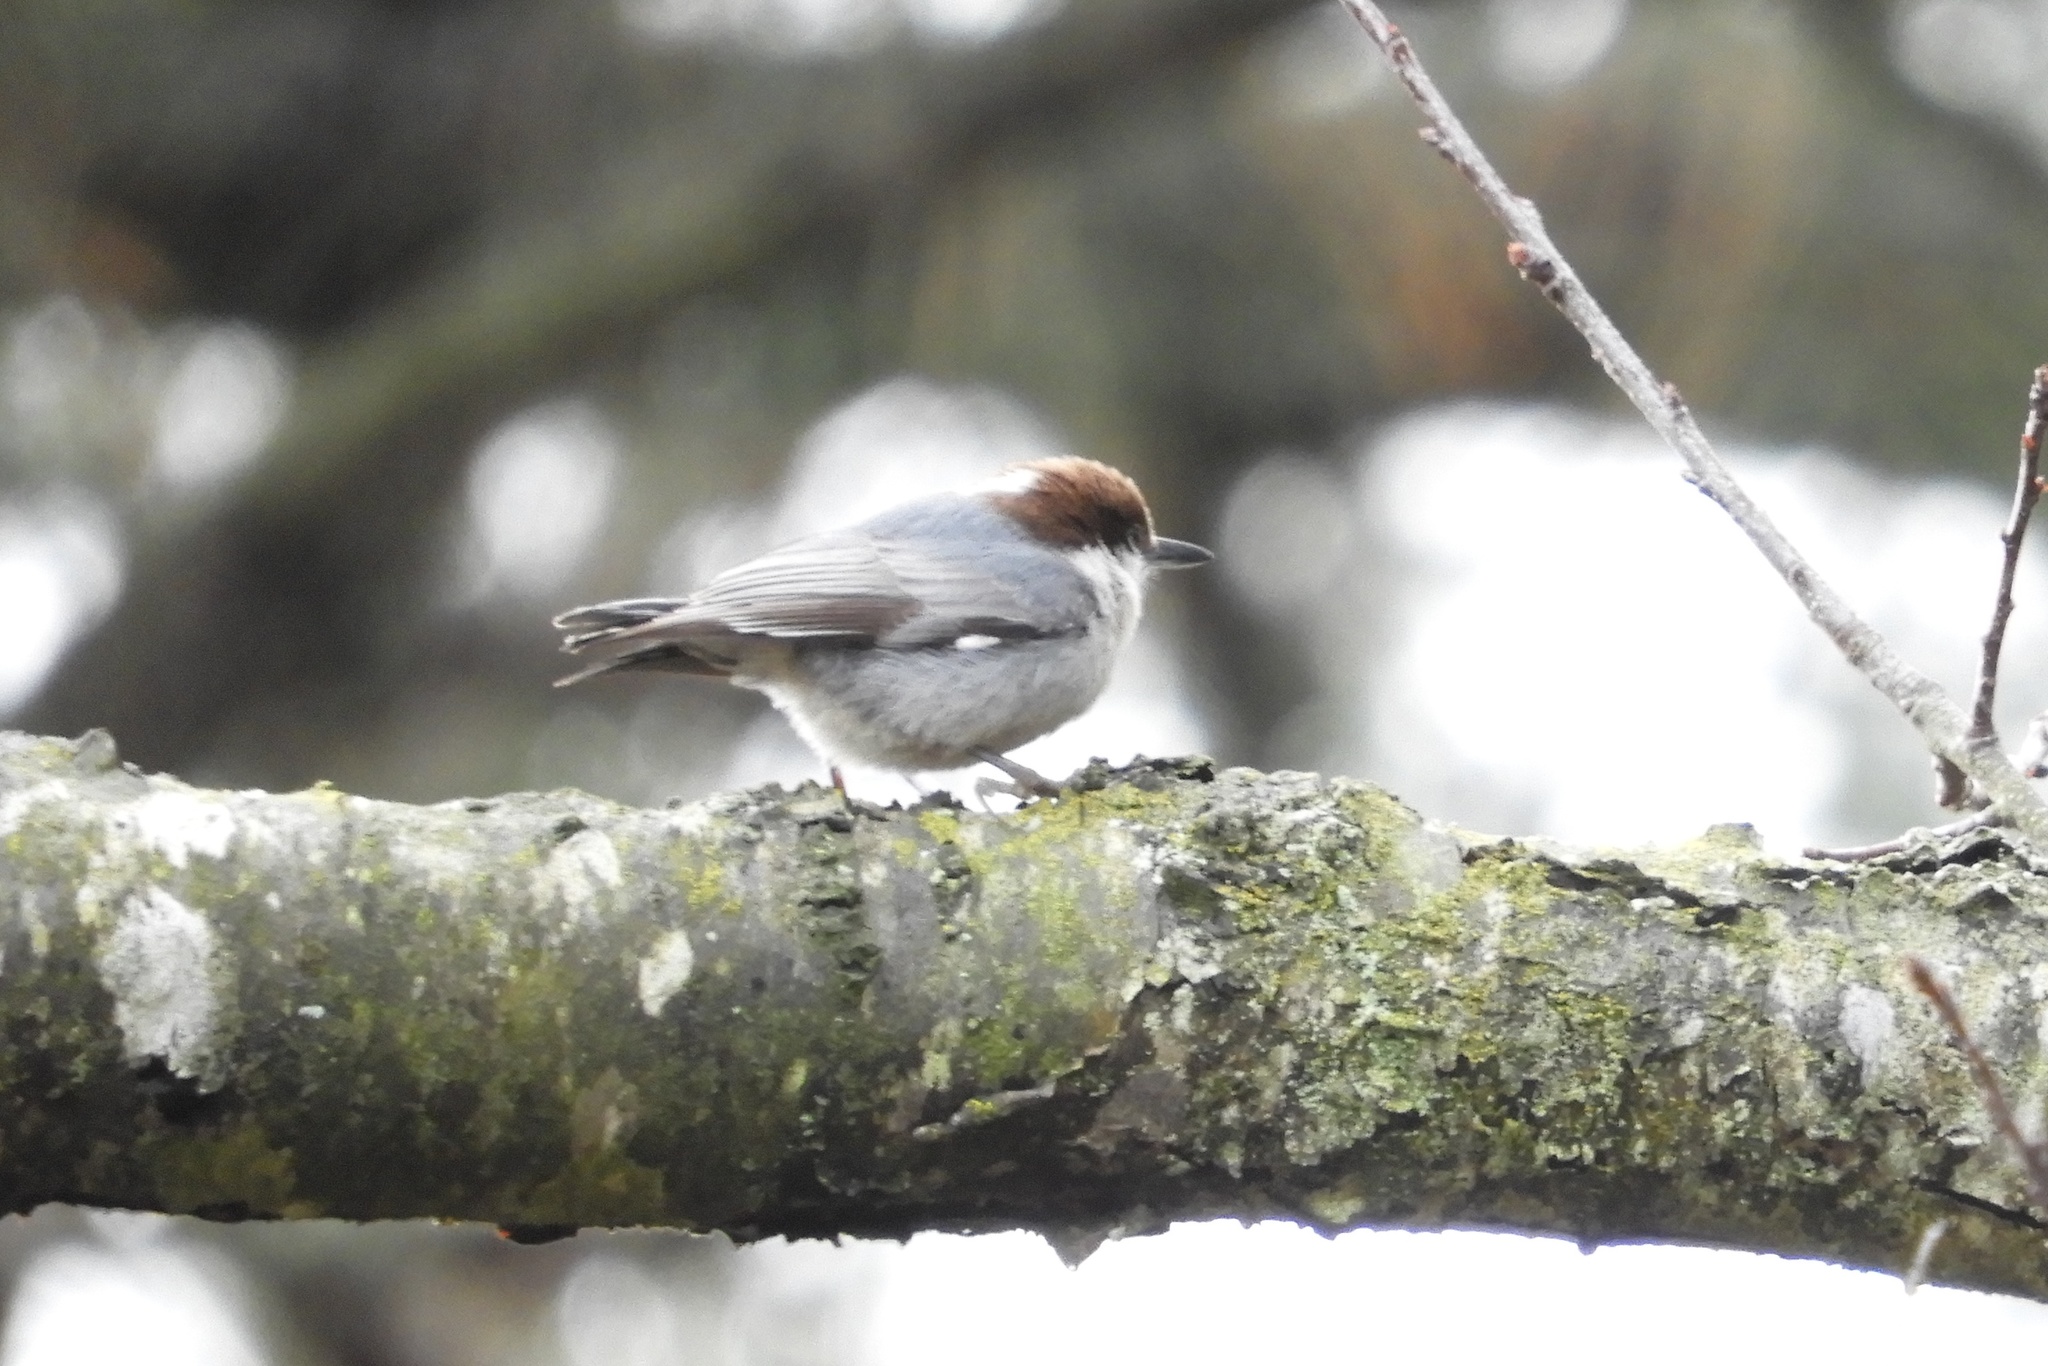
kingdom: Animalia
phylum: Chordata
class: Aves
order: Passeriformes
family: Sittidae
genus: Sitta
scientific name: Sitta pusilla
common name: Brown-headed nuthatch
